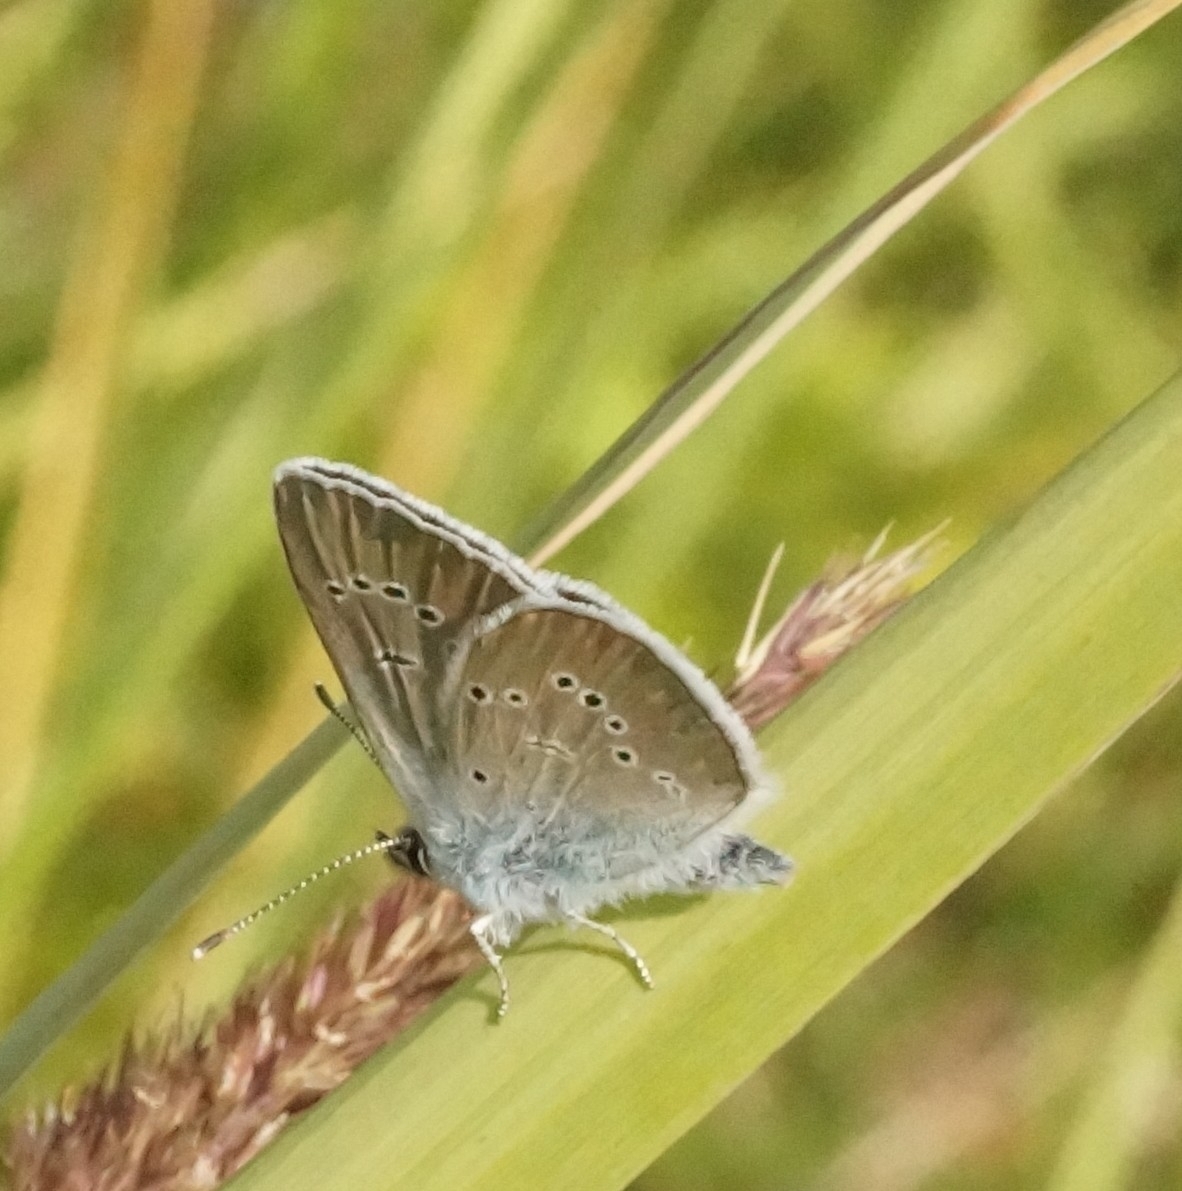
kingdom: Animalia
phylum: Arthropoda
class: Insecta
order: Lepidoptera
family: Lycaenidae
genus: Cyaniris
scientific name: Cyaniris semiargus
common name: Mazarine blue
